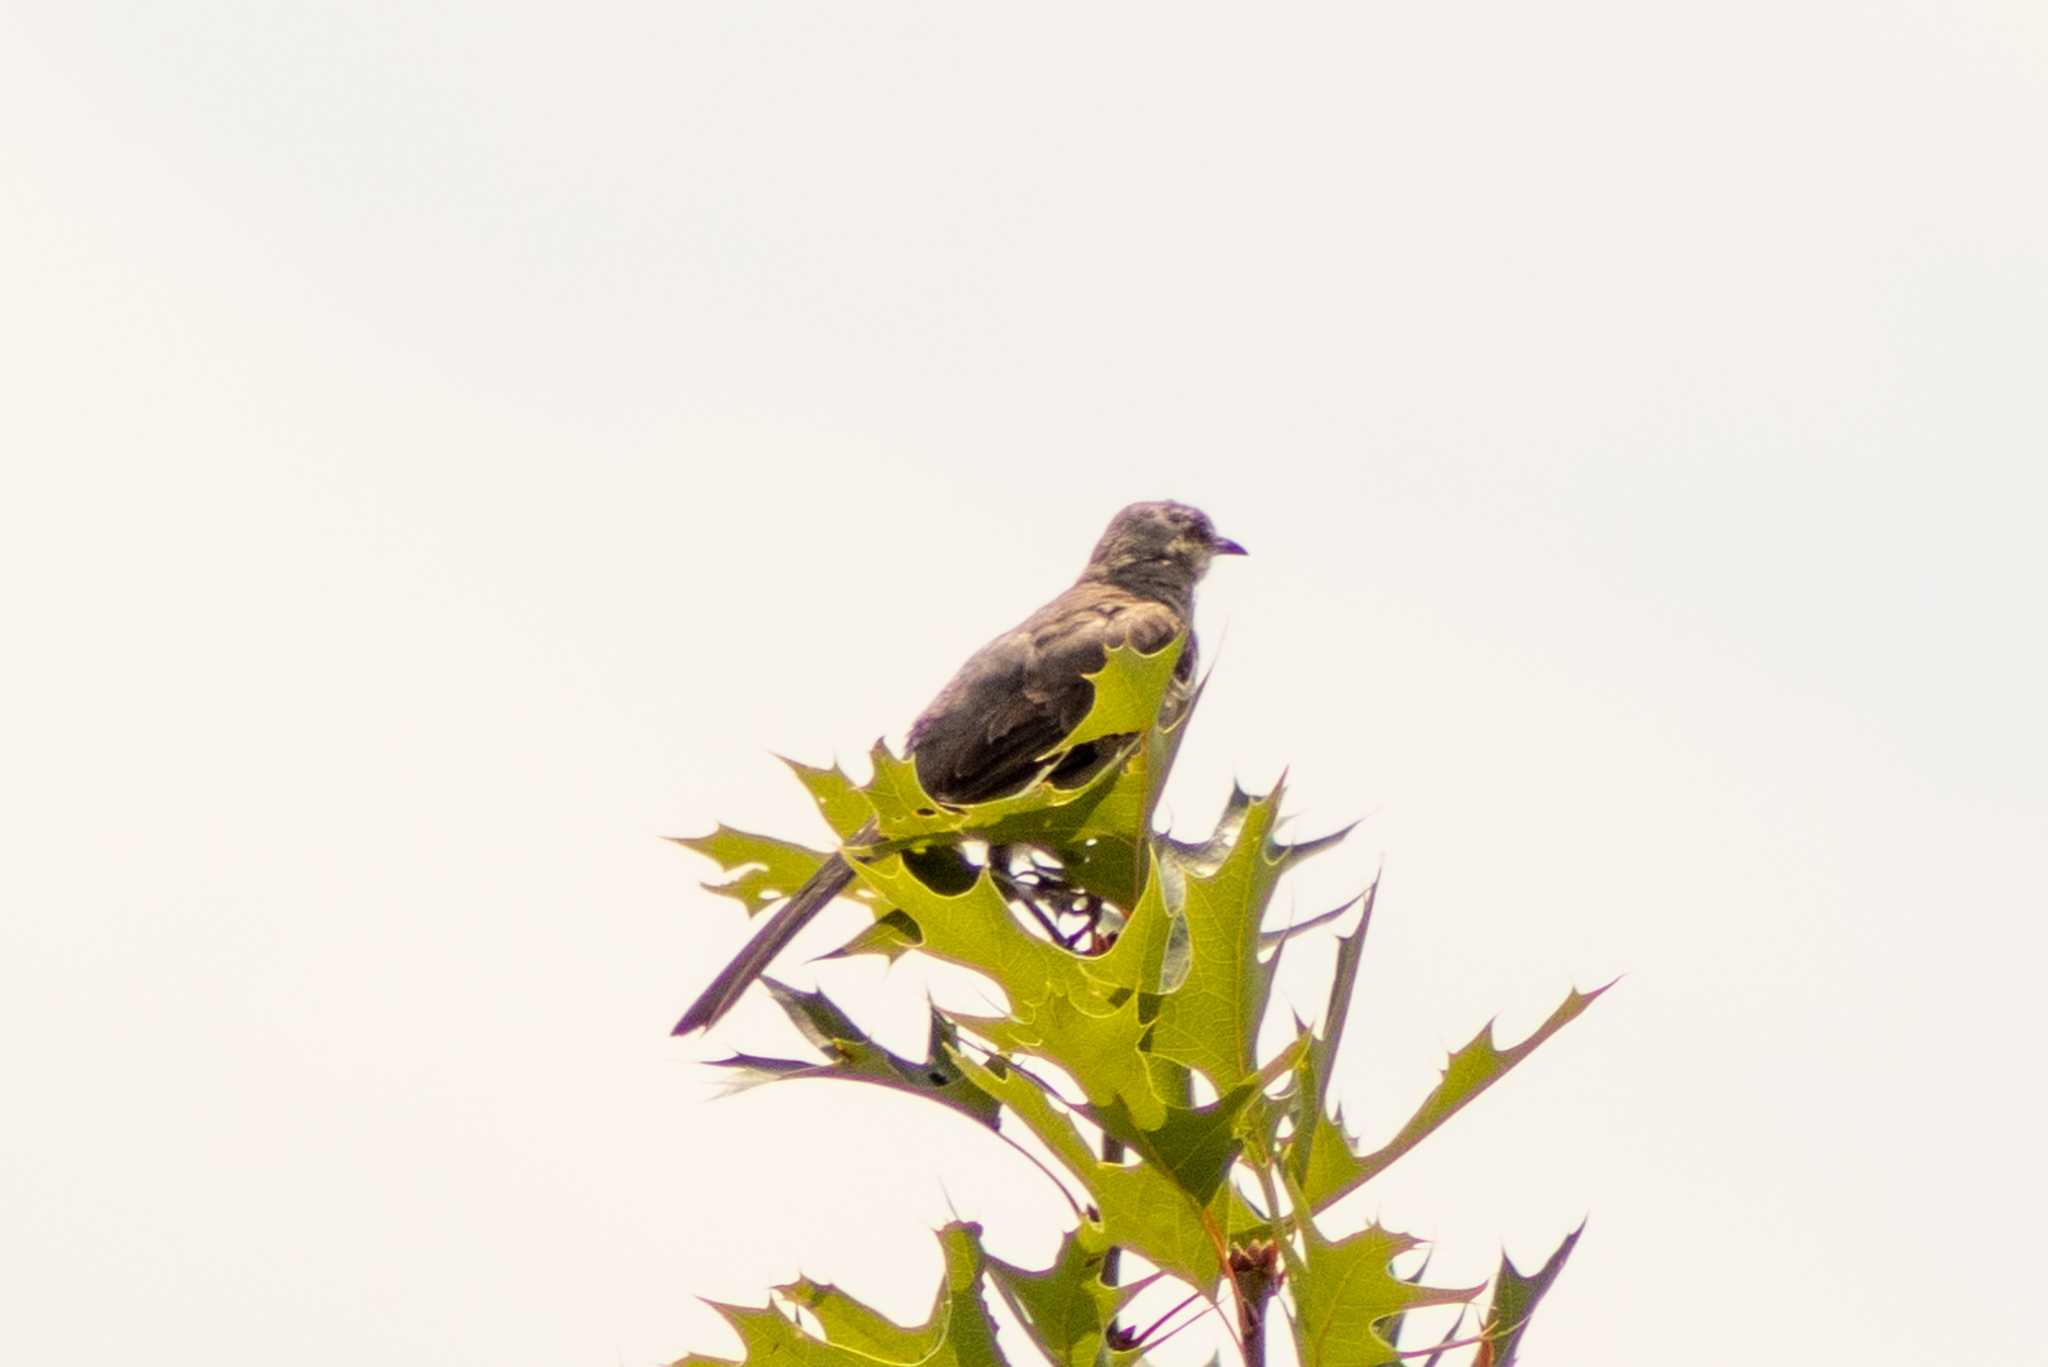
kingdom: Animalia
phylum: Chordata
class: Aves
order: Passeriformes
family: Mimidae
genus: Mimus
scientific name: Mimus polyglottos
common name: Northern mockingbird
